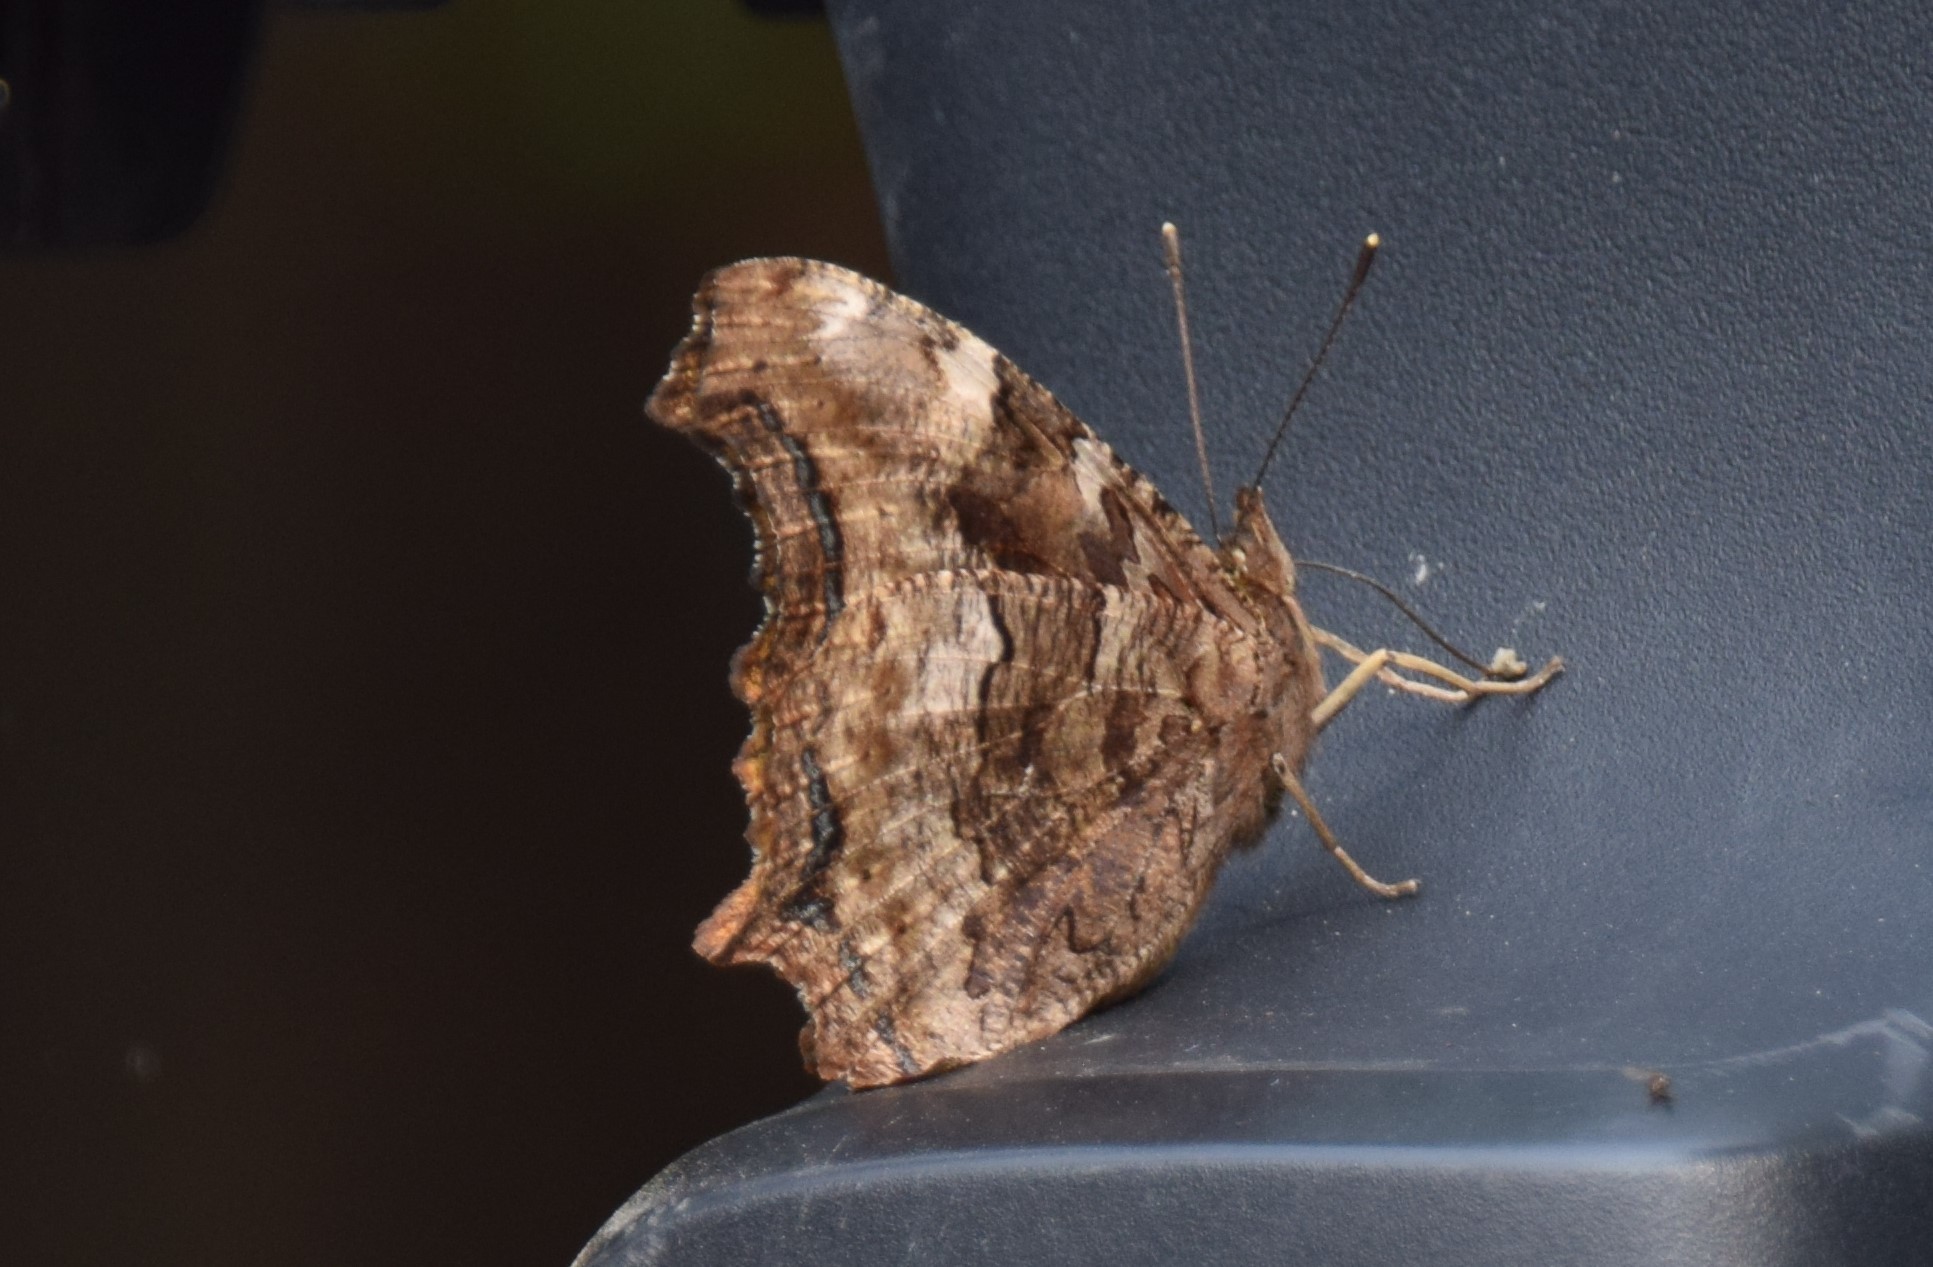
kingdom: Animalia
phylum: Arthropoda
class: Insecta
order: Lepidoptera
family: Nymphalidae
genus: Polygonia
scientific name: Polygonia vaualbum
